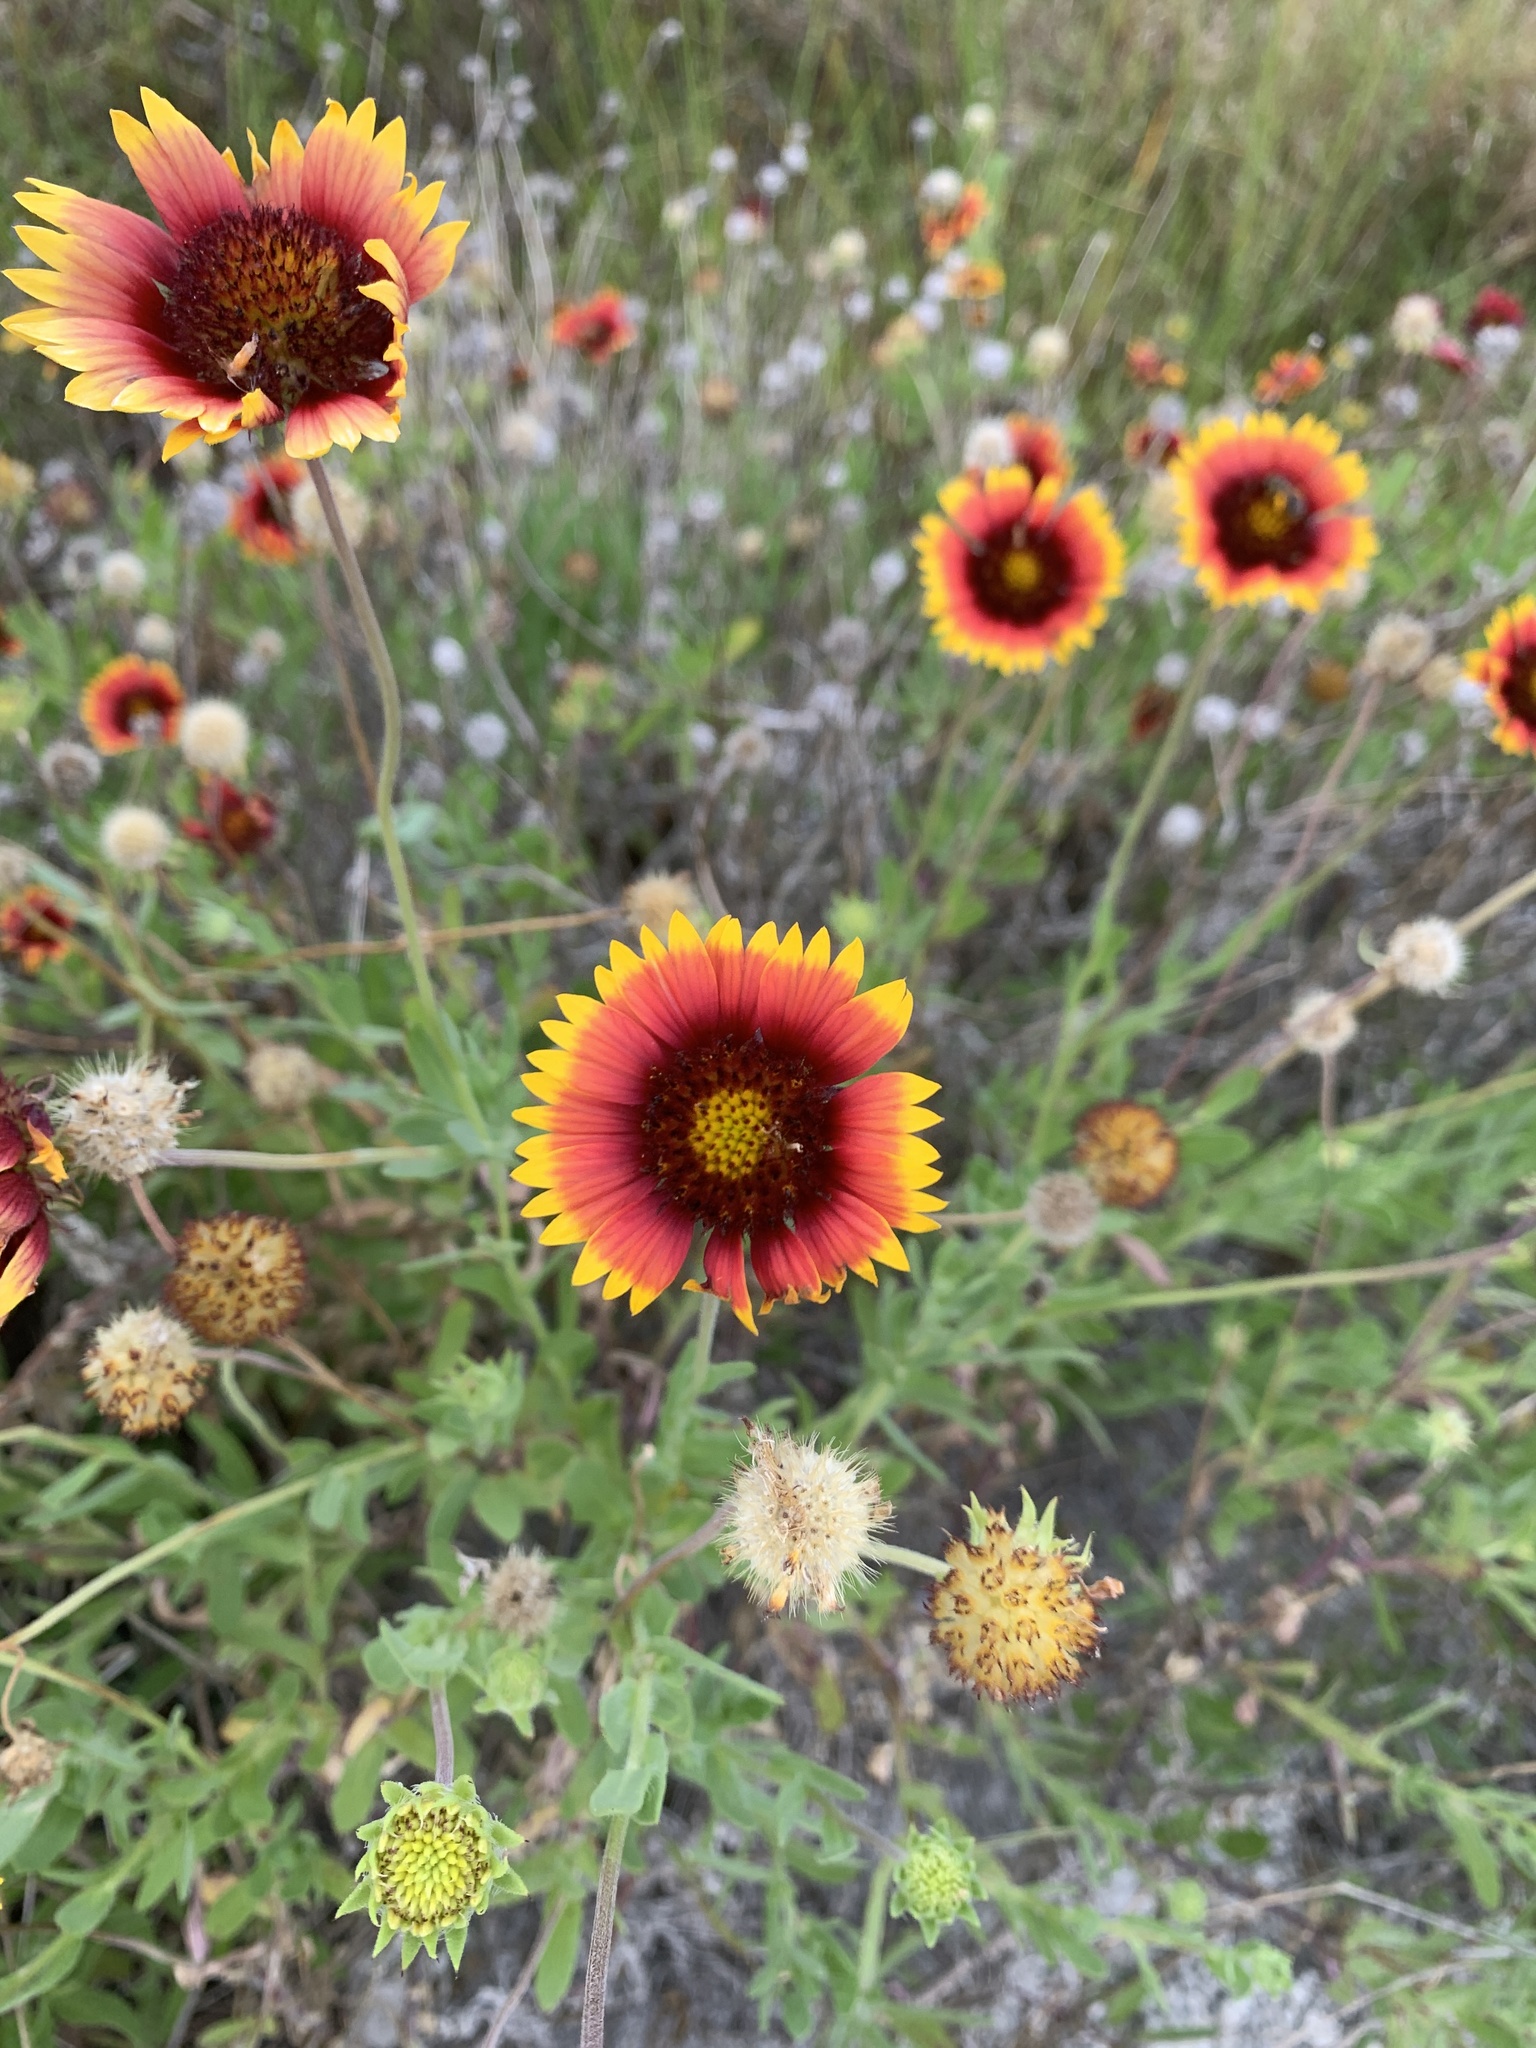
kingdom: Plantae
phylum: Tracheophyta
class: Magnoliopsida
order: Asterales
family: Asteraceae
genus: Gaillardia
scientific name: Gaillardia pulchella
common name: Firewheel
